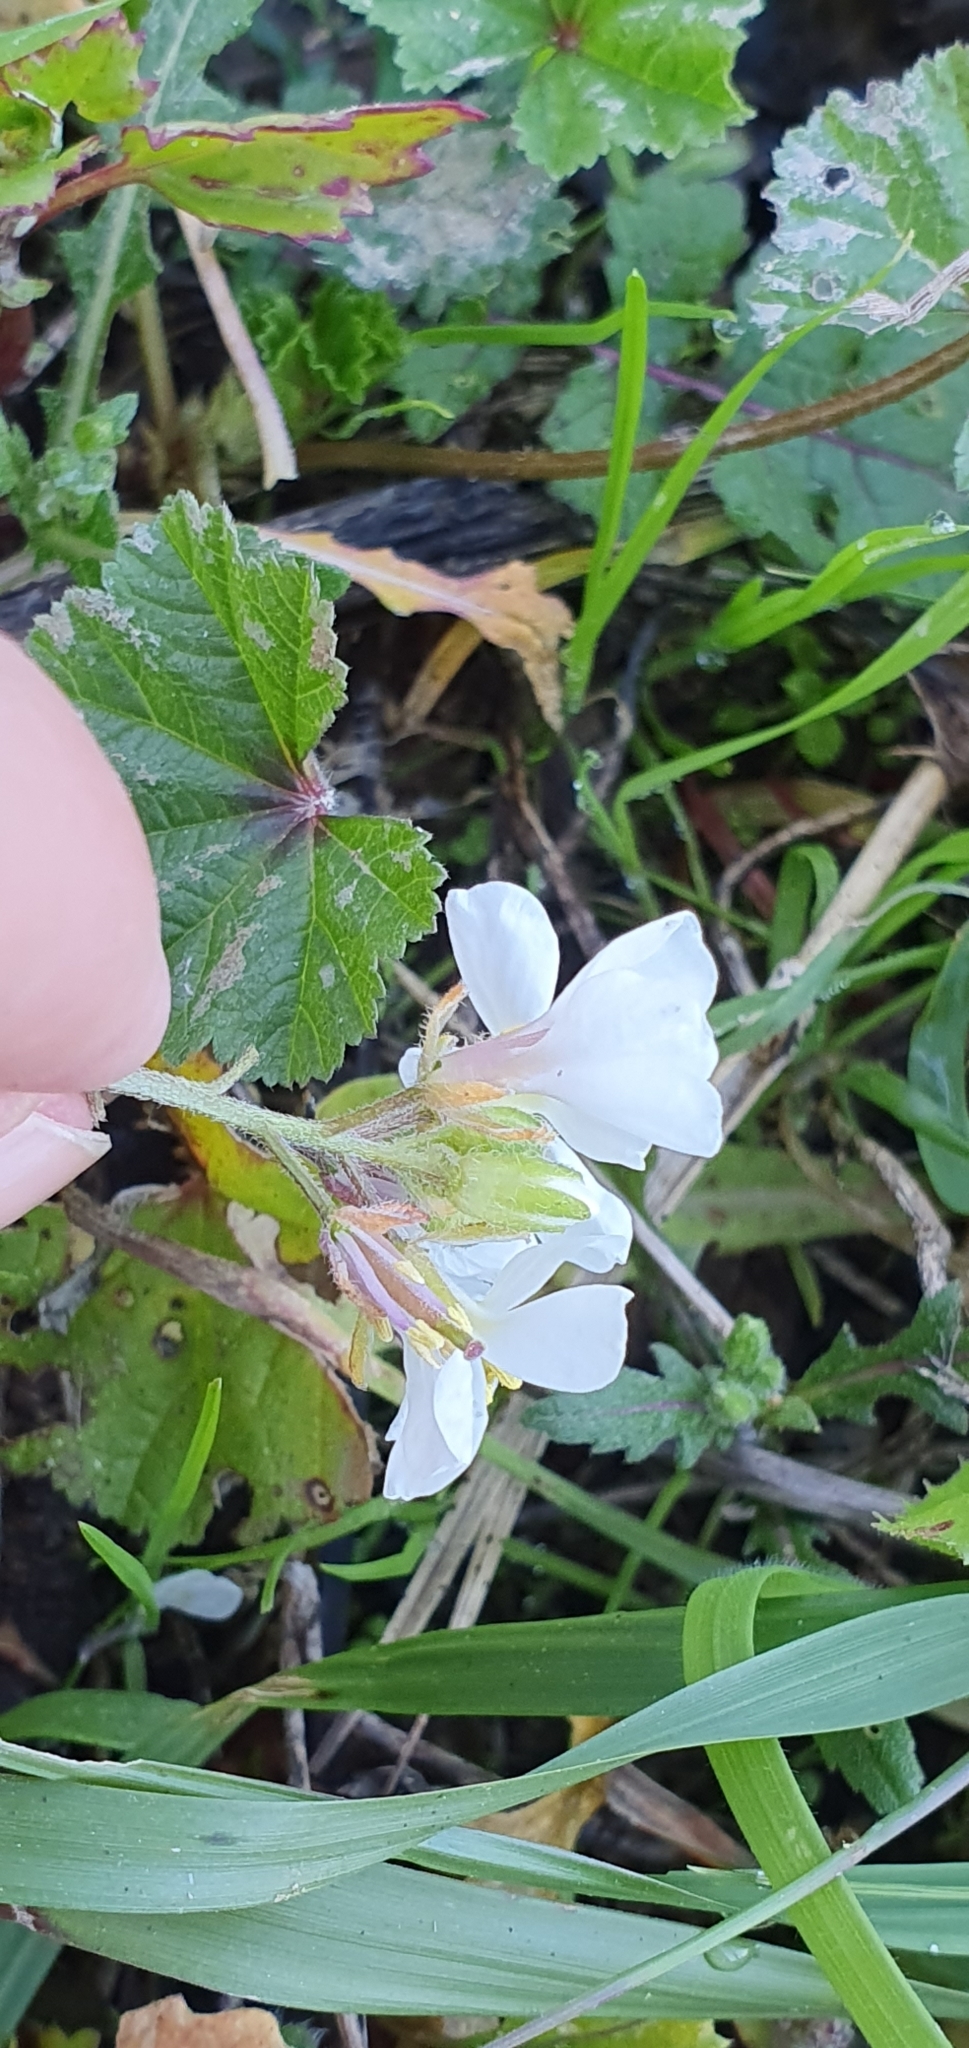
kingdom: Plantae
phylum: Tracheophyta
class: Magnoliopsida
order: Brassicales
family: Brassicaceae
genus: Diplotaxis
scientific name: Diplotaxis erucoides
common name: White rocket
